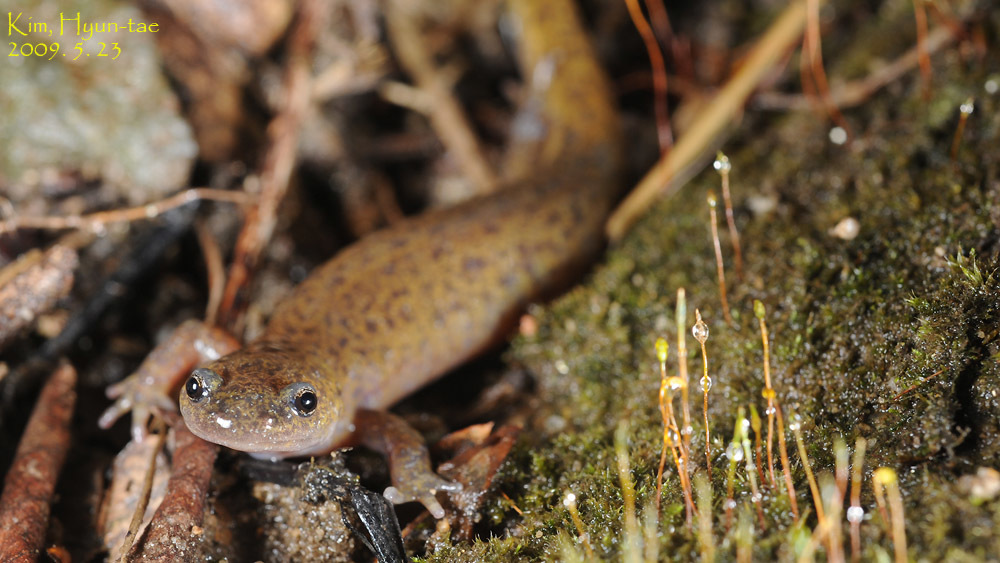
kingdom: Animalia
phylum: Chordata
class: Amphibia
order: Caudata
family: Hynobiidae
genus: Hynobius
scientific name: Hynobius leechii
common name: Gensan salamander
